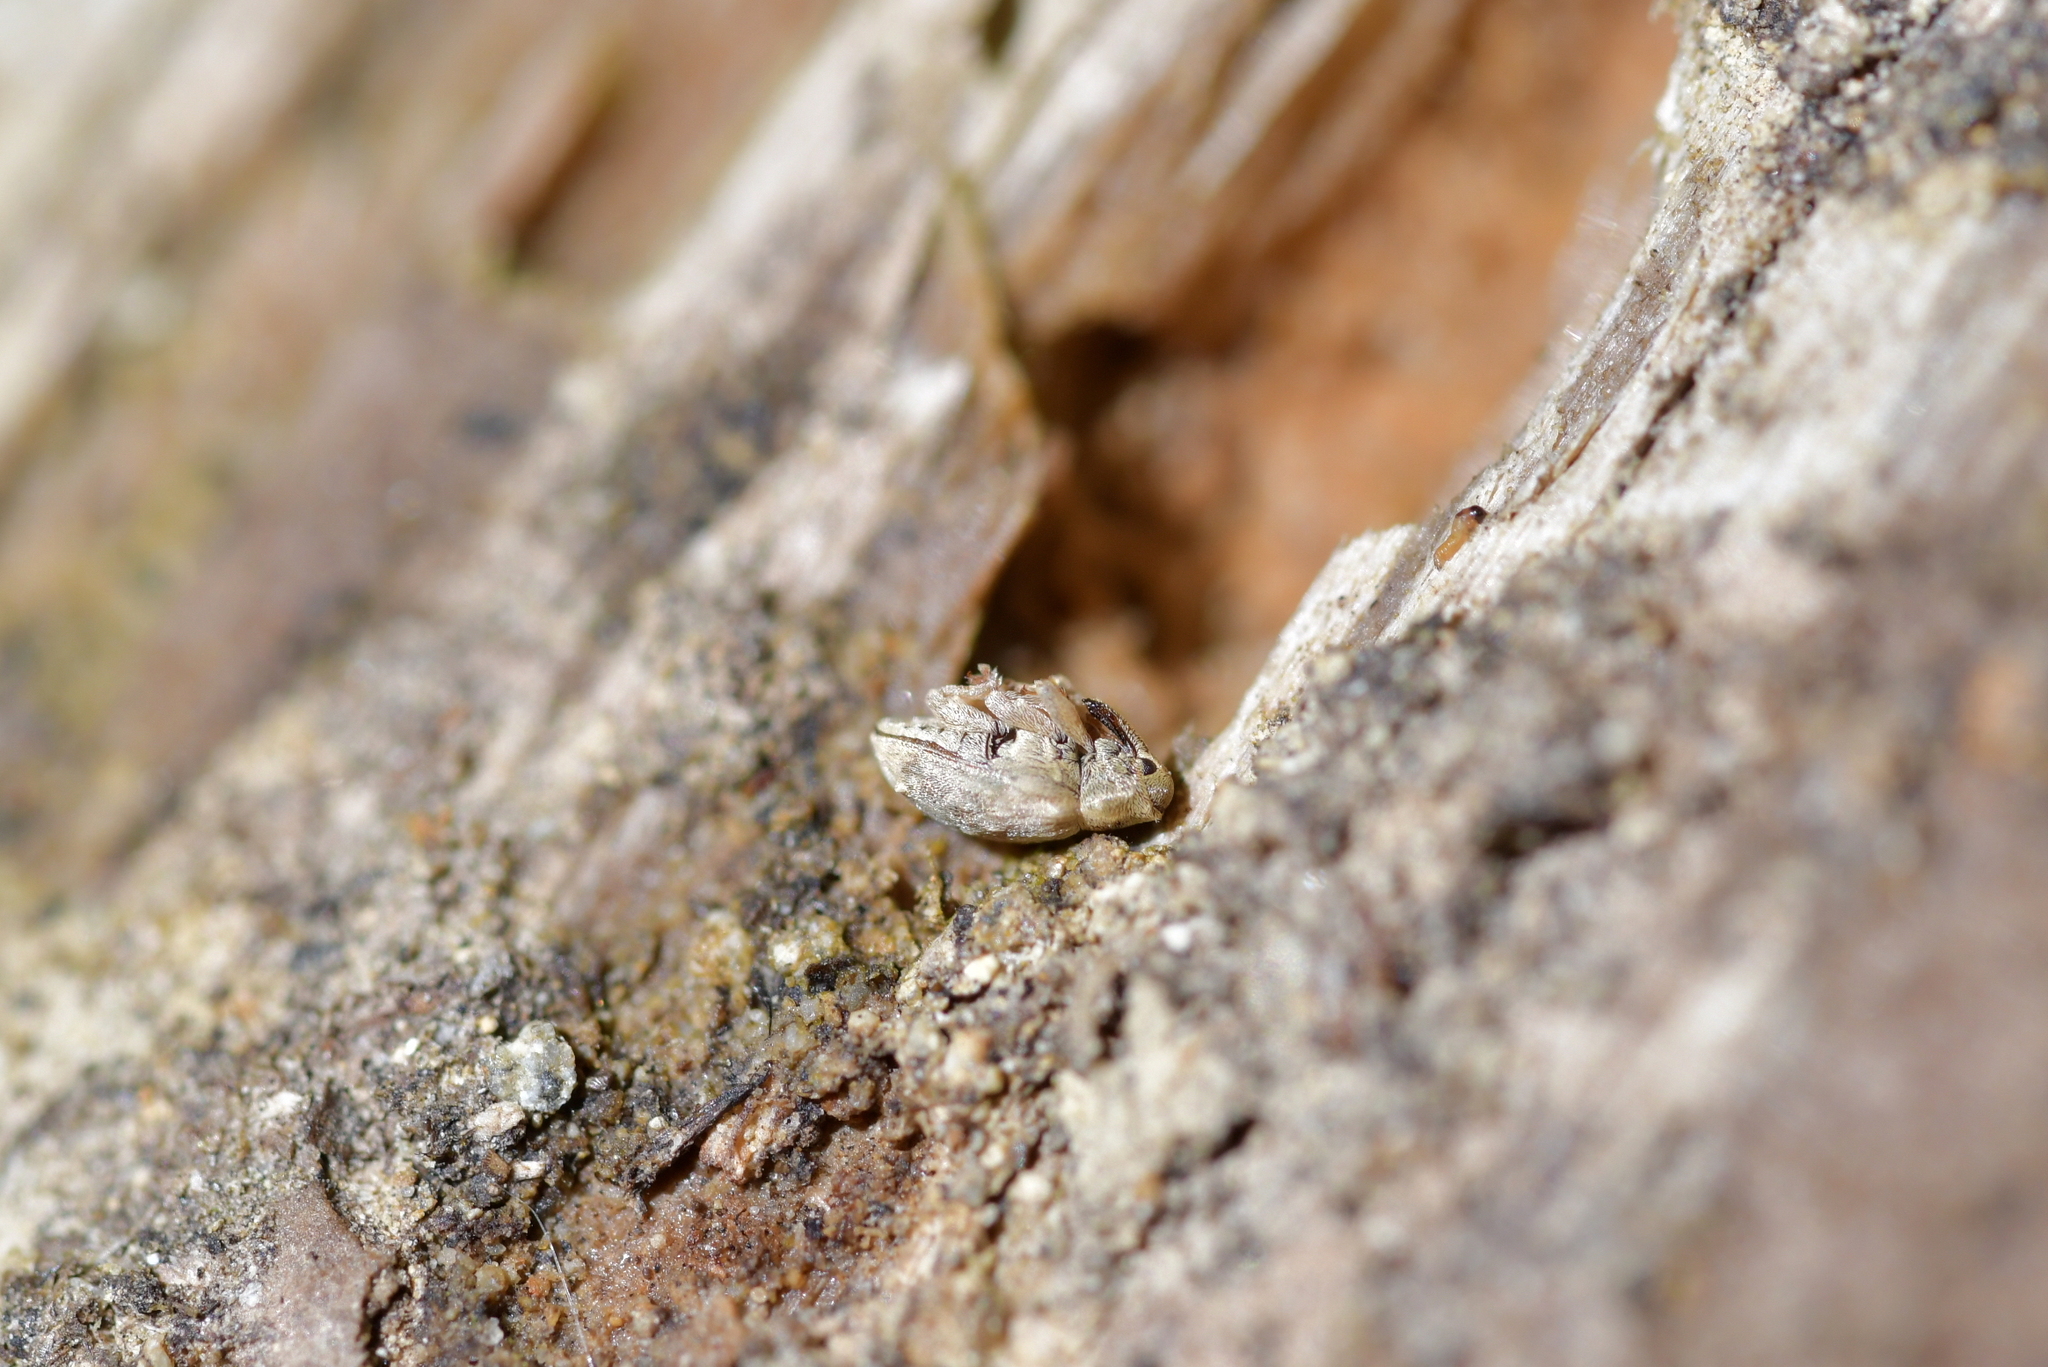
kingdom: Animalia
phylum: Arthropoda
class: Insecta
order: Coleoptera
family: Curculionidae
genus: Aneuma
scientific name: Aneuma compta
